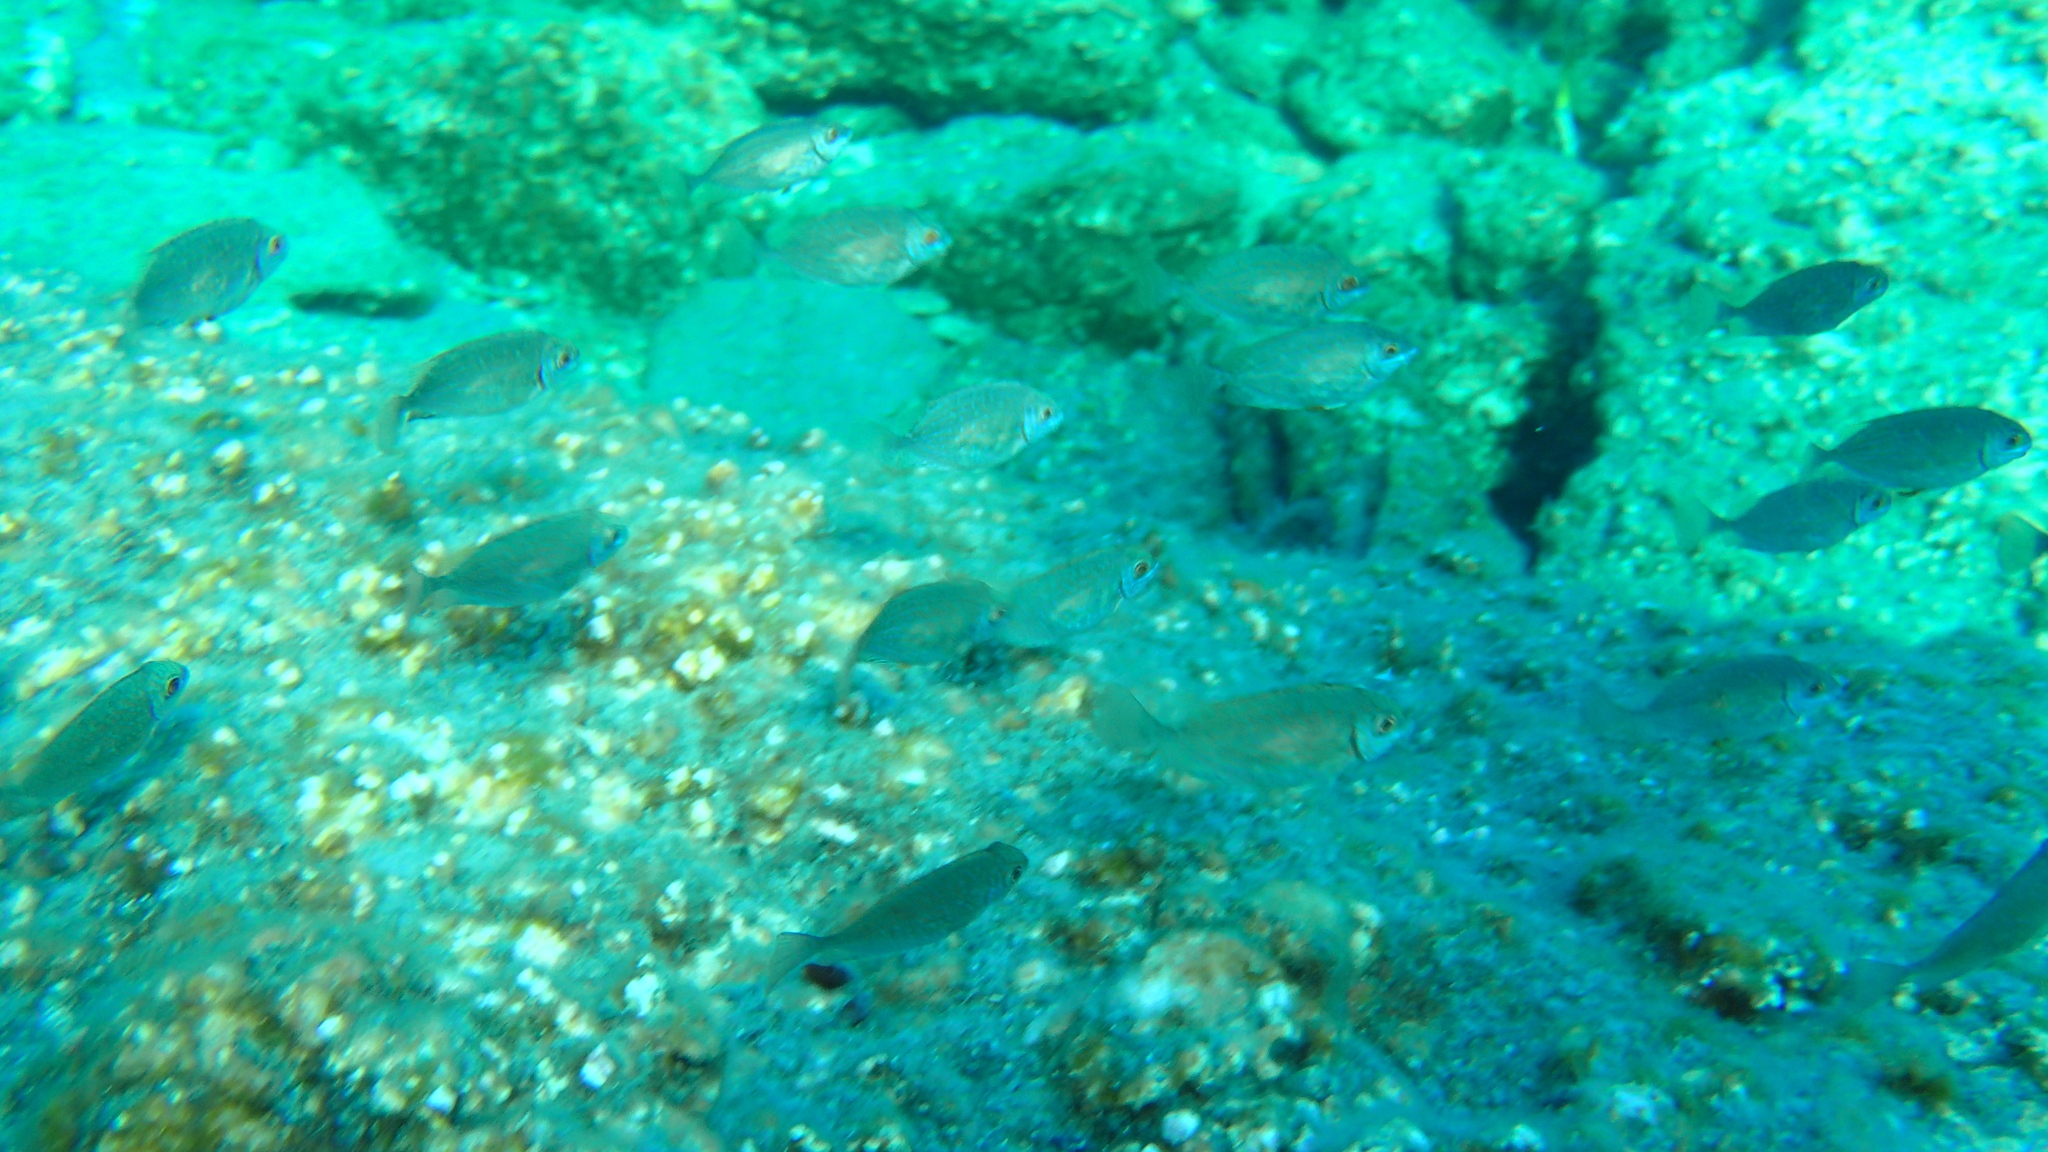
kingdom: Animalia
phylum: Chordata
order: Perciformes
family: Siganidae
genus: Siganus
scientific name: Siganus
